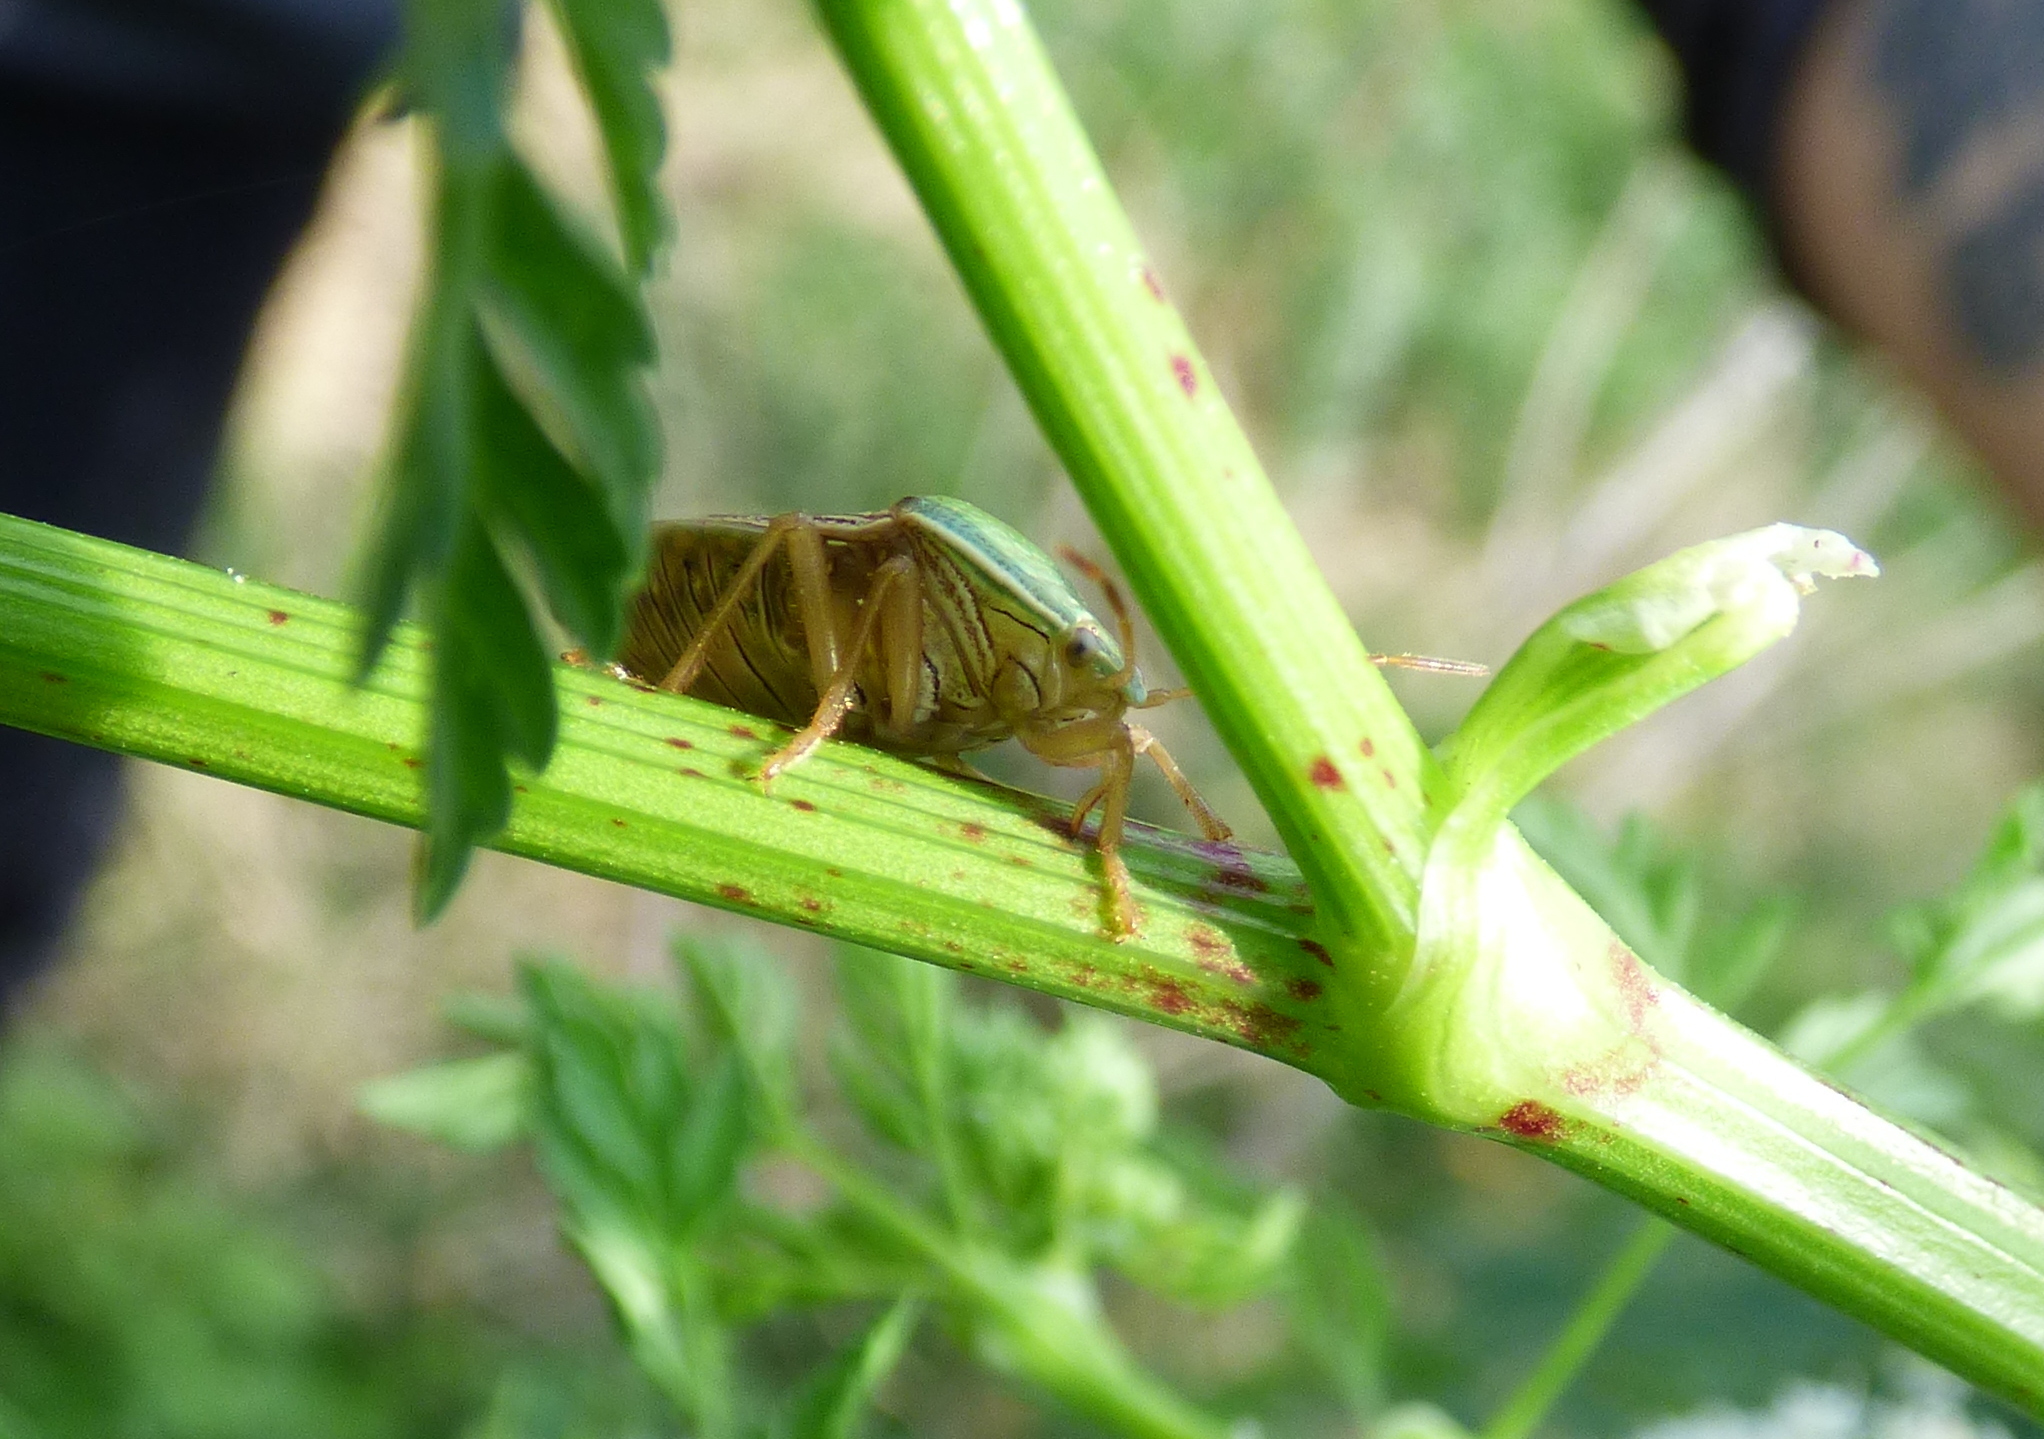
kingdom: Animalia
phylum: Arthropoda
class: Insecta
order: Hemiptera
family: Pentatomidae
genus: Edessa
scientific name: Edessa meditabunda
